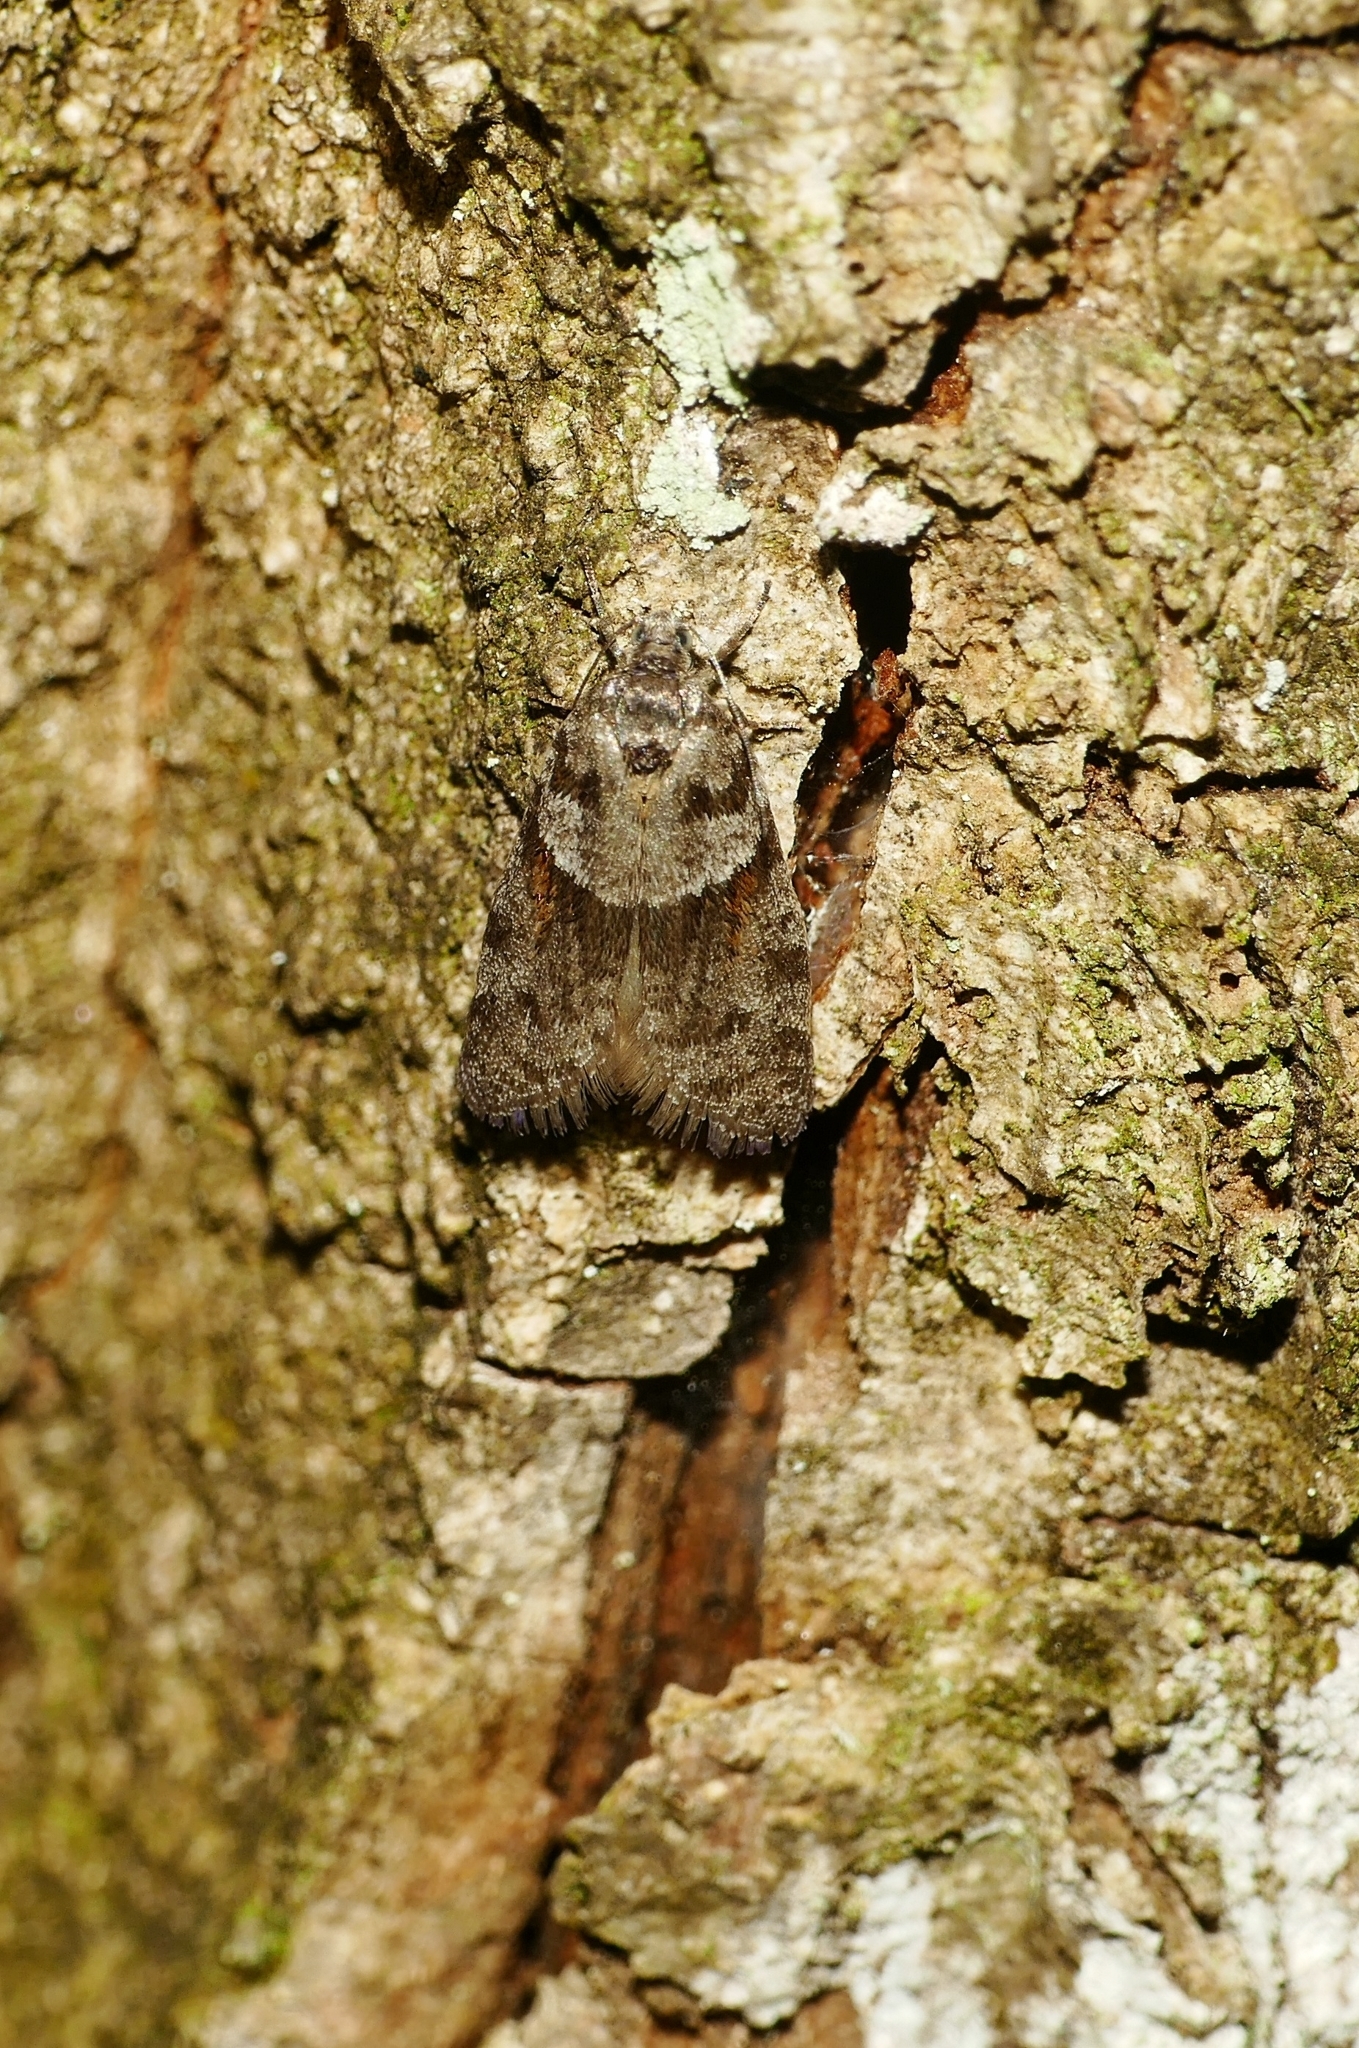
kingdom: Animalia
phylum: Arthropoda
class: Insecta
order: Lepidoptera
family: Tortricidae
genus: Tortricodes
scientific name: Tortricodes alternella
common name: Winter shade
